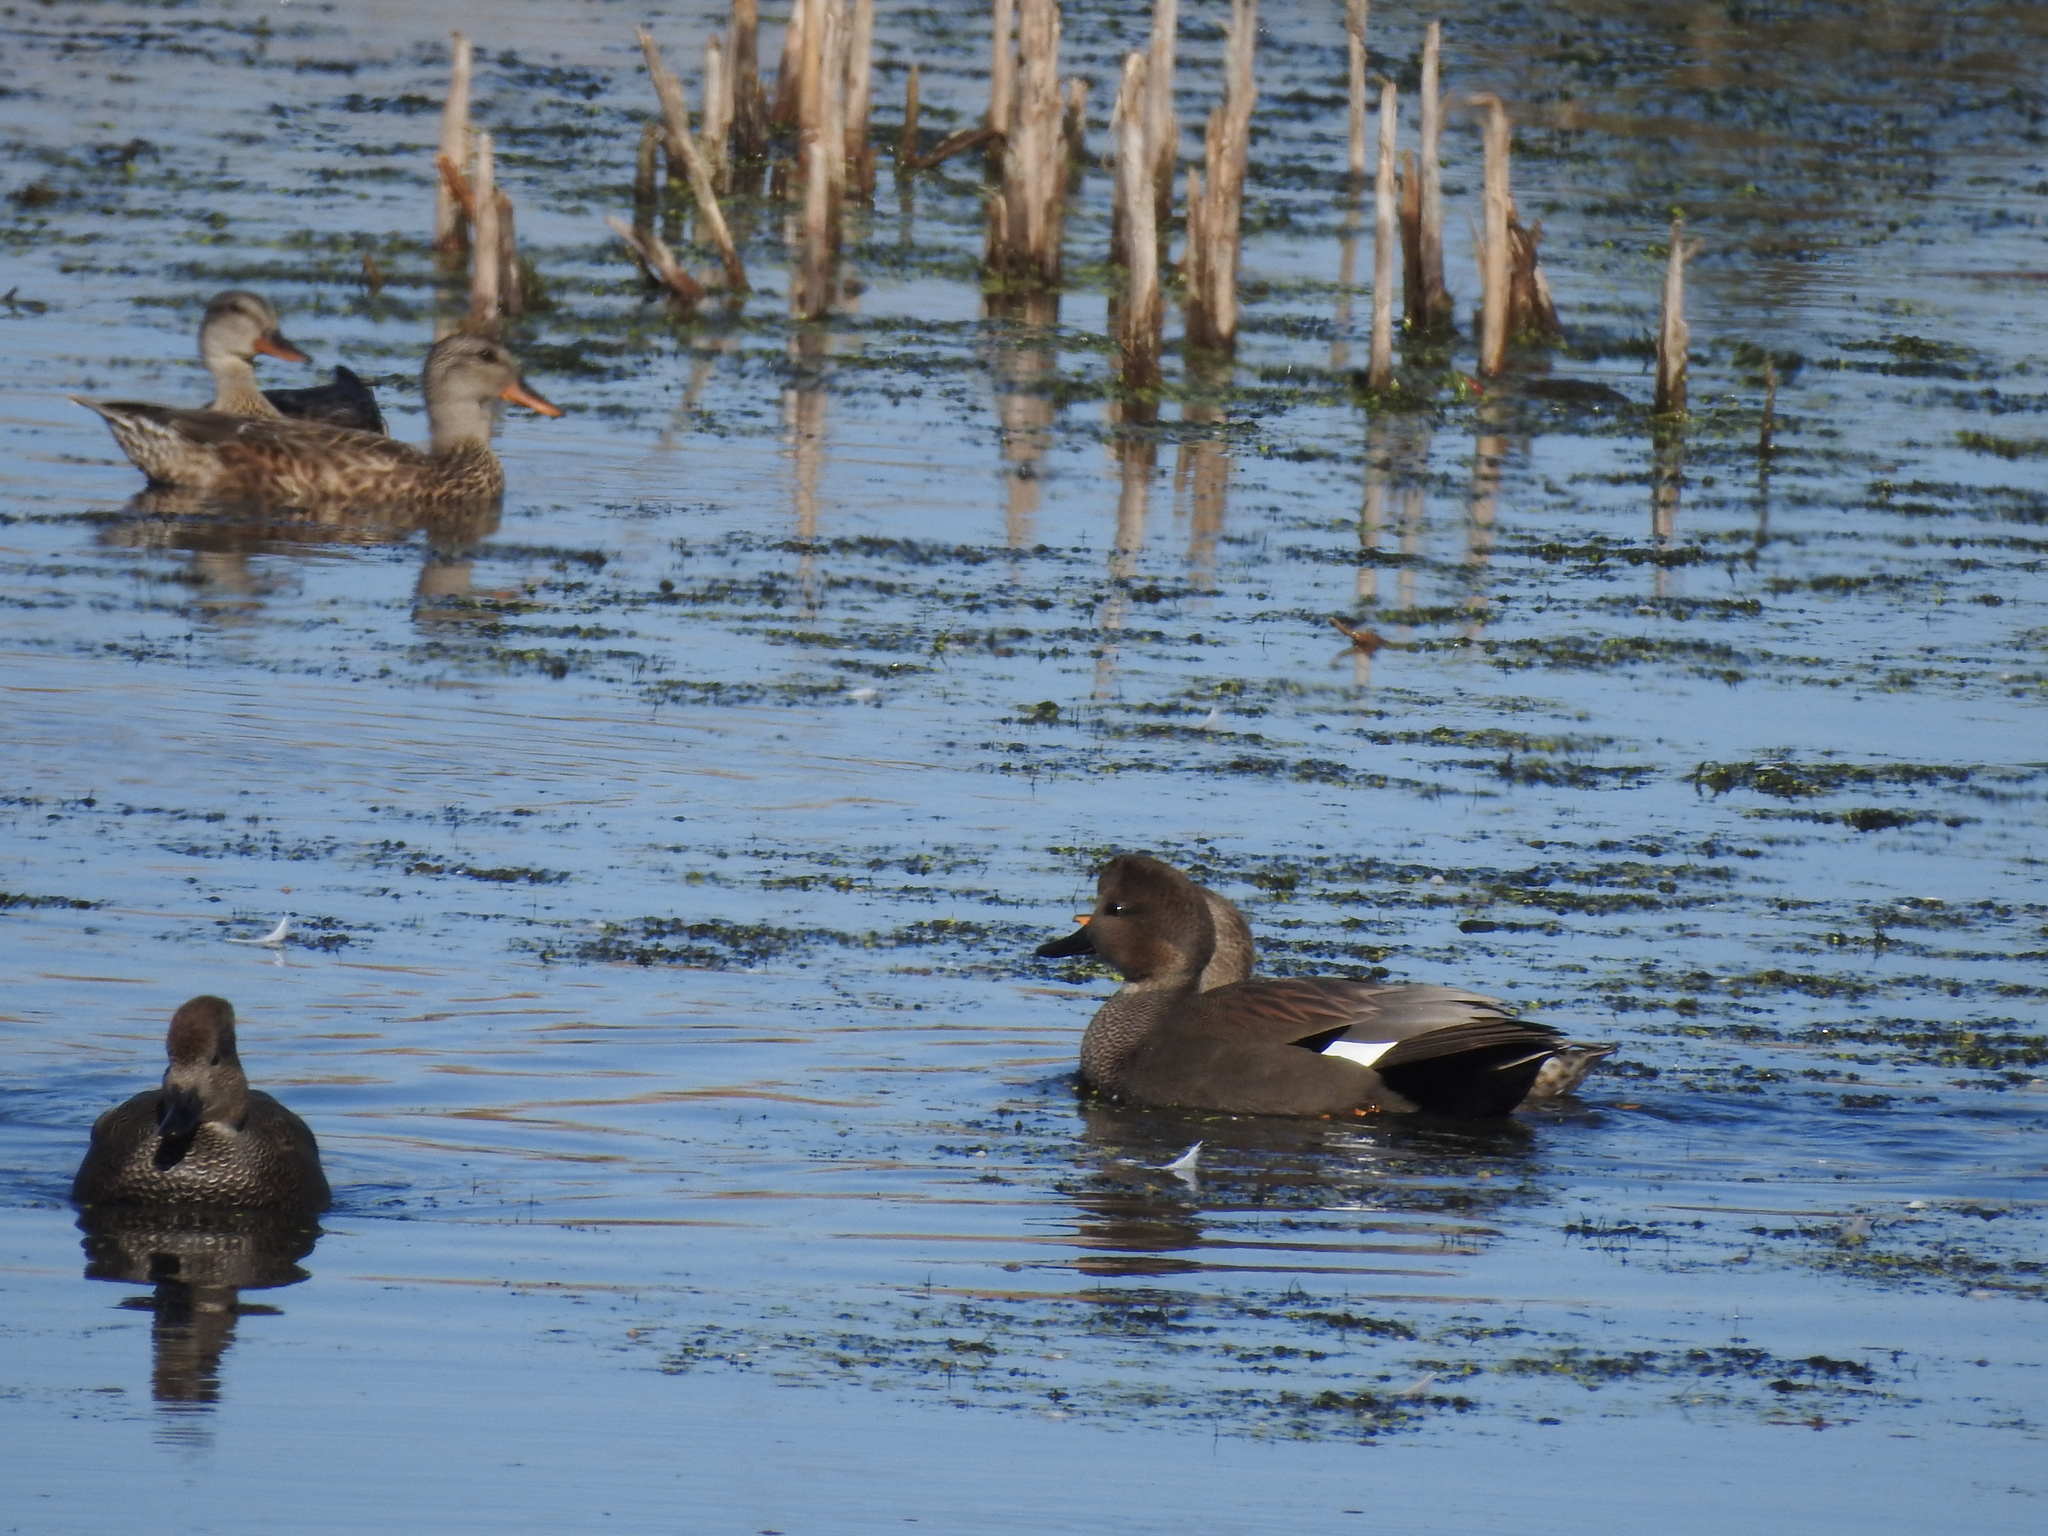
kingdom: Animalia
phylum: Chordata
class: Aves
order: Anseriformes
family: Anatidae
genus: Mareca
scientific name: Mareca strepera
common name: Gadwall
